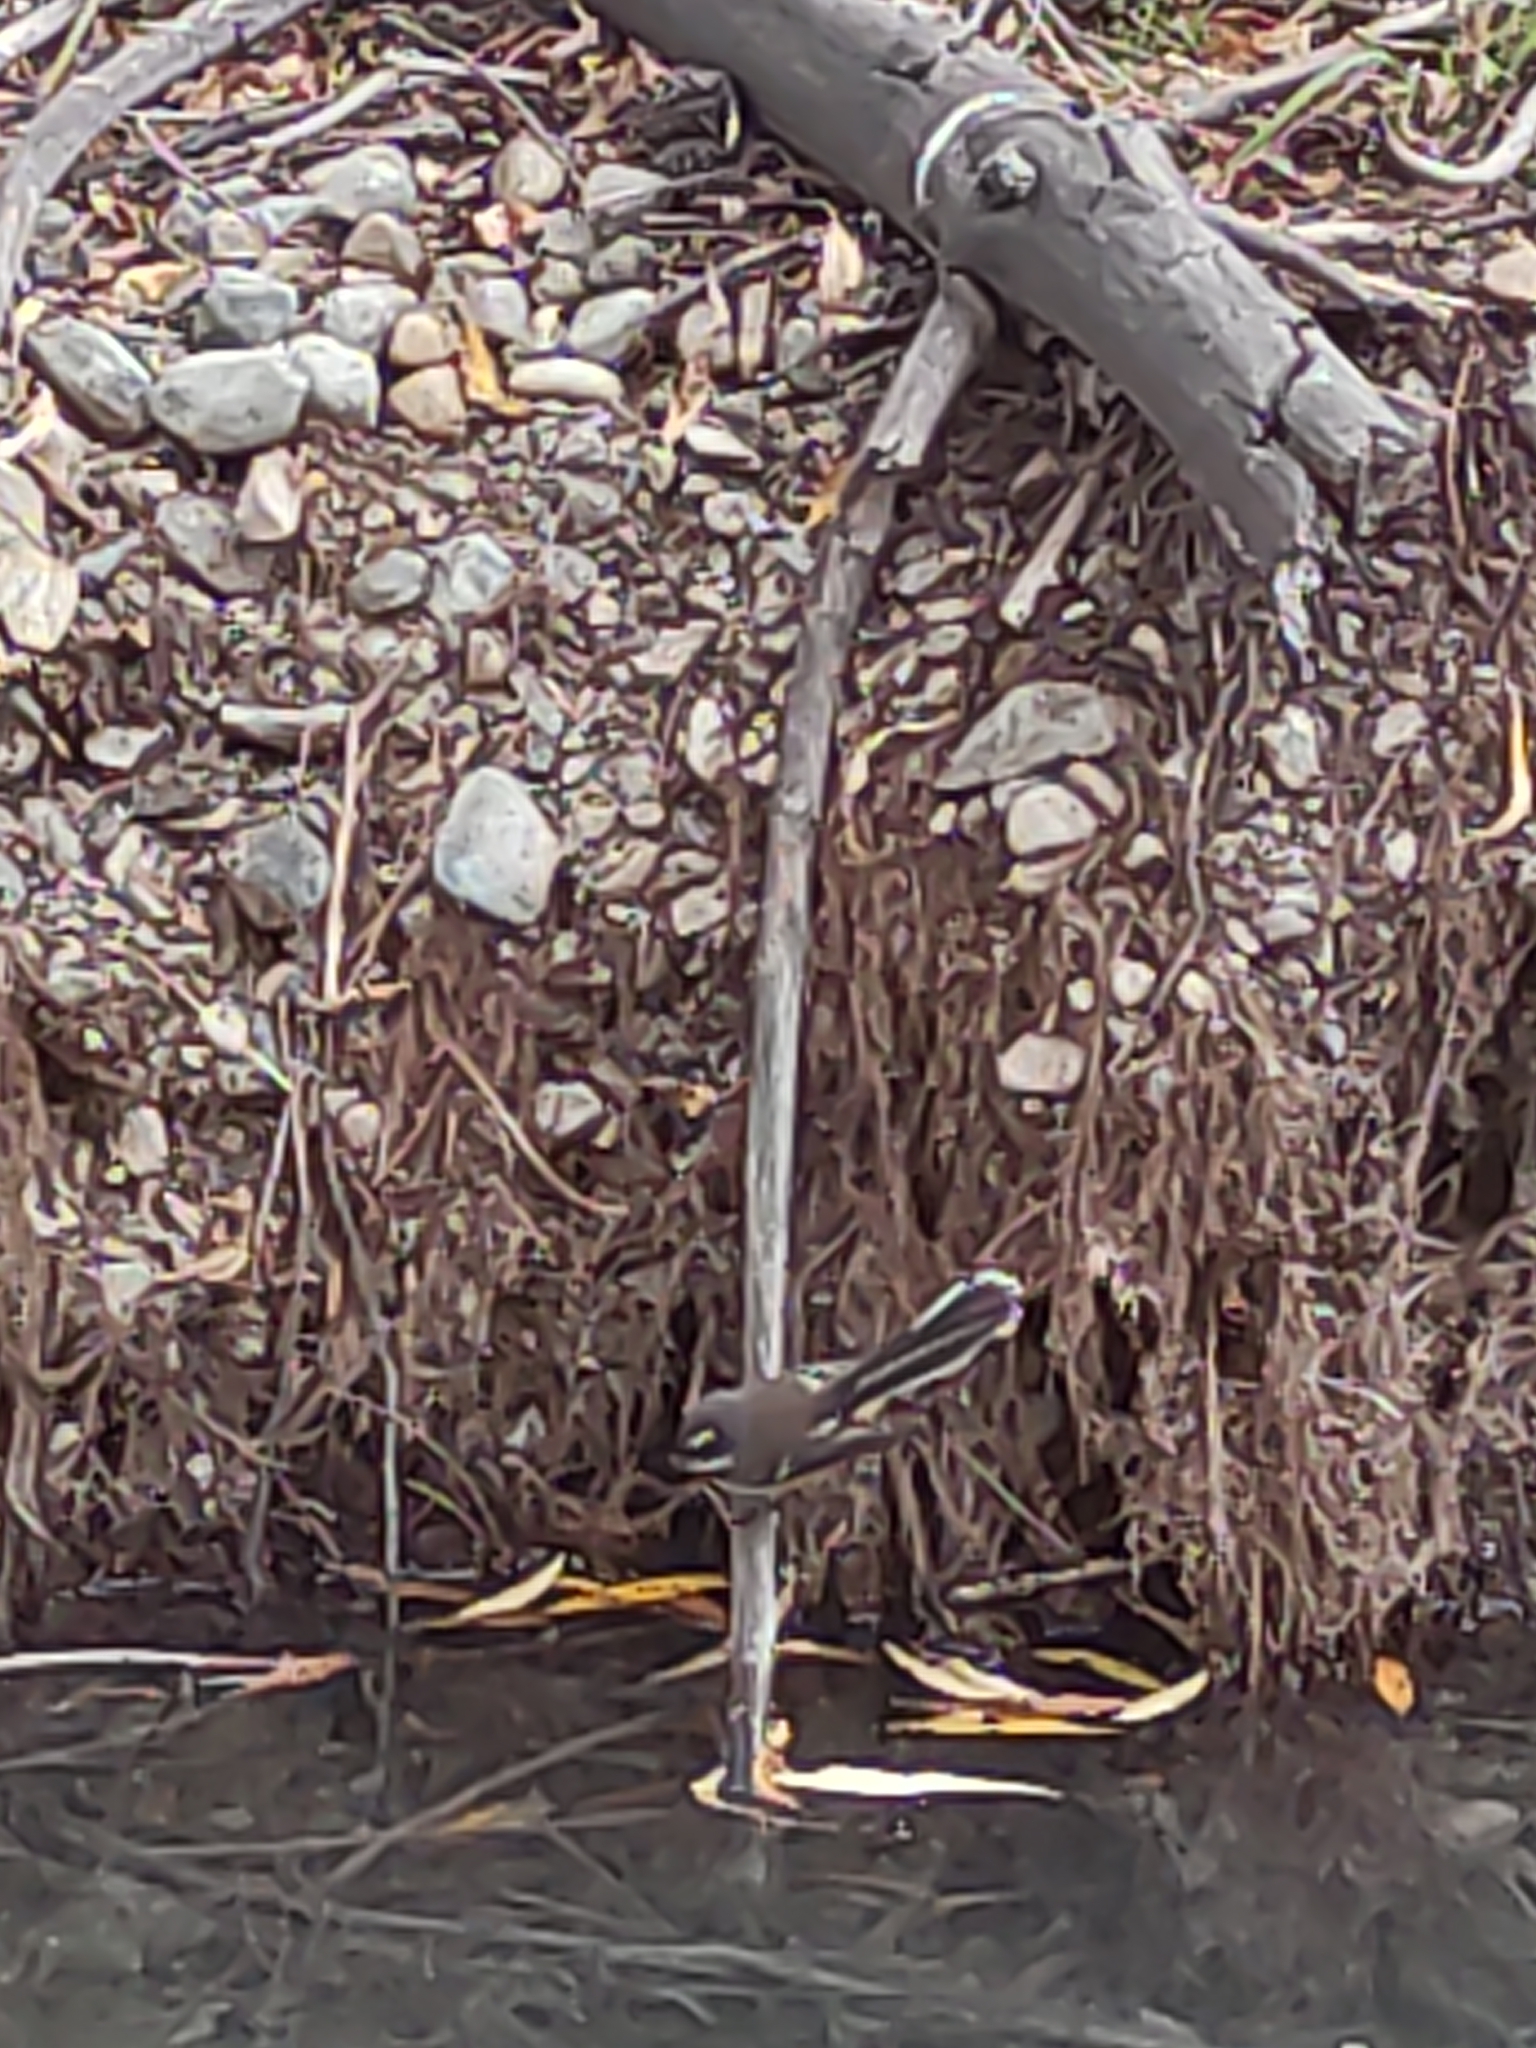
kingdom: Animalia
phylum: Chordata
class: Aves
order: Passeriformes
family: Rhipiduridae
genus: Rhipidura
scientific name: Rhipidura fuliginosa
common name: New zealand fantail
